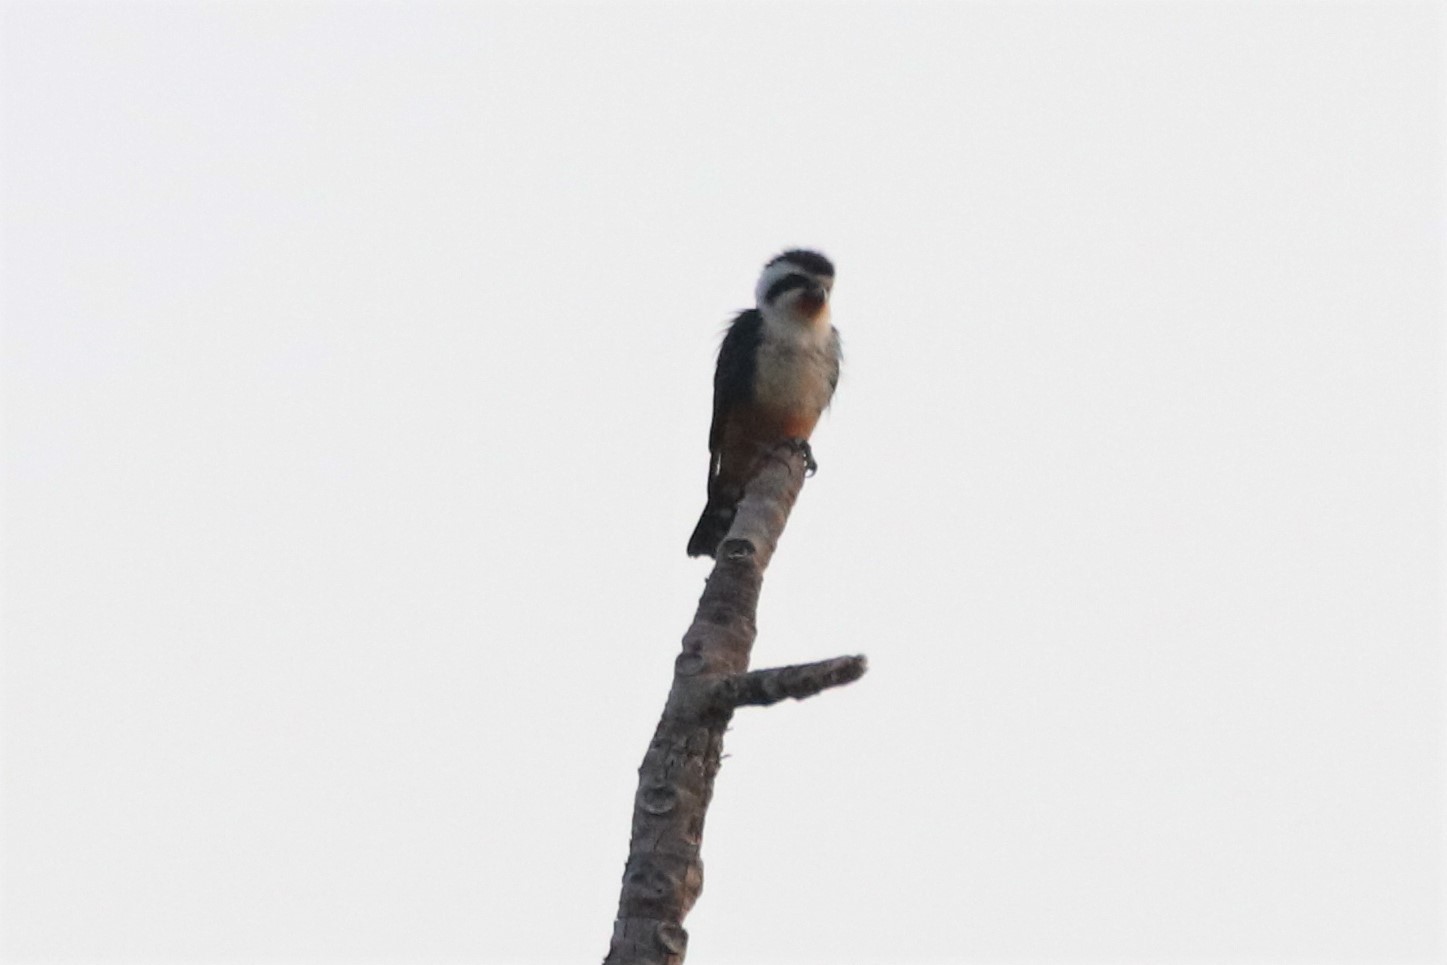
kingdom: Animalia
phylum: Chordata
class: Aves
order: Falconiformes
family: Falconidae
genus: Microhierax
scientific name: Microhierax caerulescens
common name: Collared falconet
